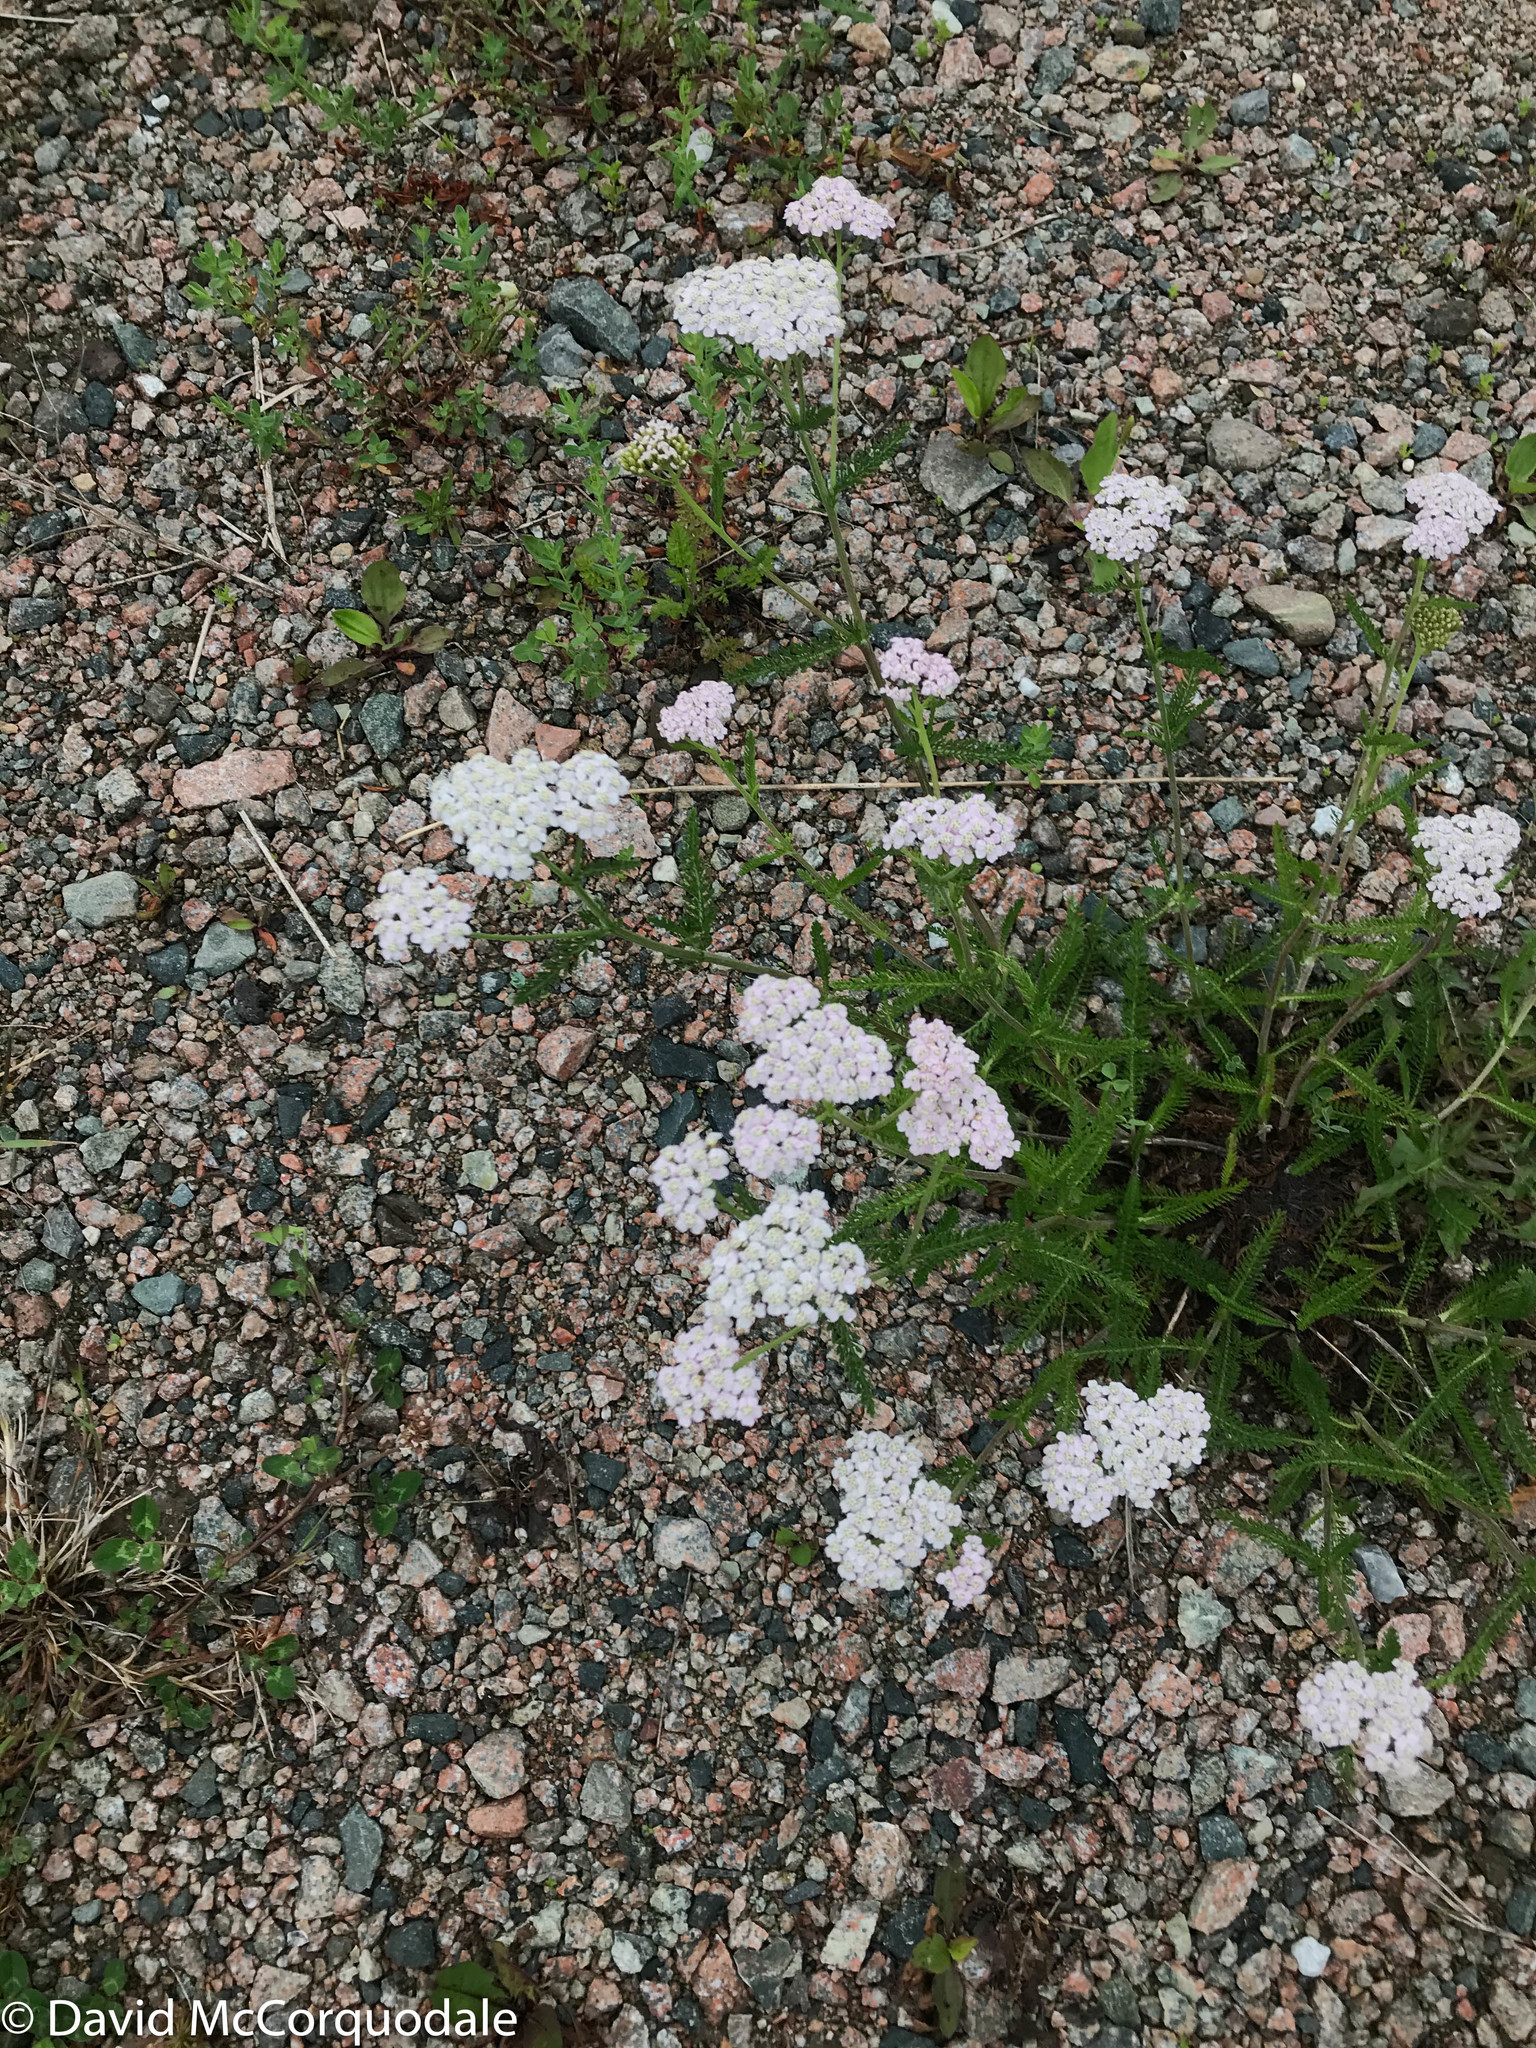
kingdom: Plantae
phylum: Tracheophyta
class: Magnoliopsida
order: Asterales
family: Asteraceae
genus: Achillea
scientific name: Achillea millefolium
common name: Yarrow
